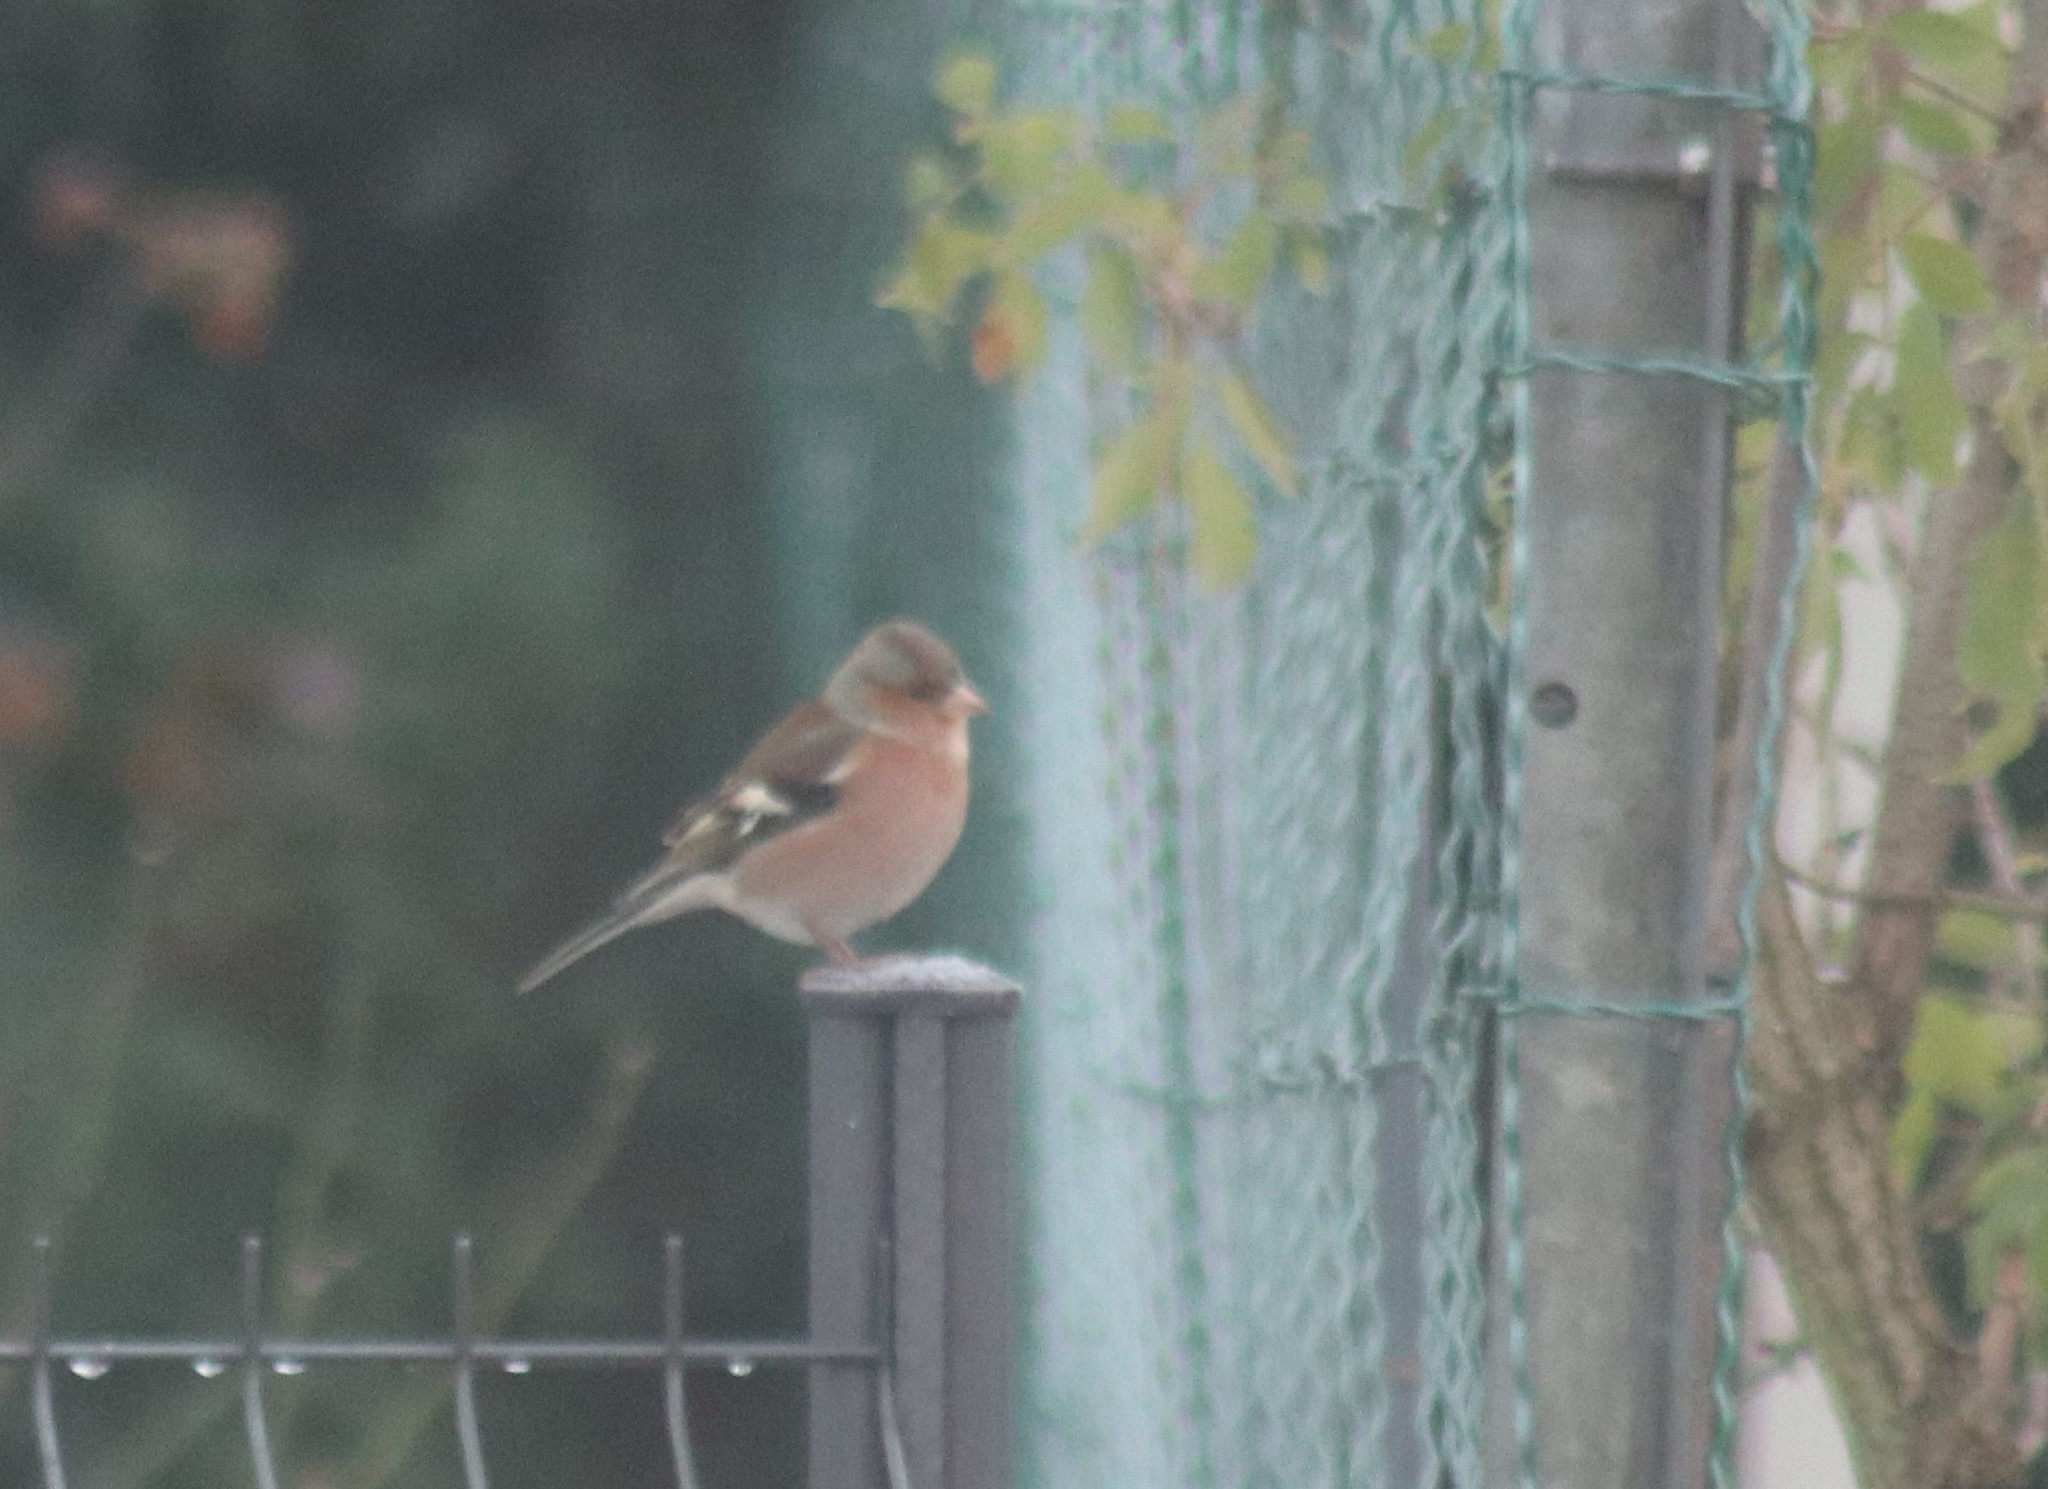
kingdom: Animalia
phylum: Chordata
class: Aves
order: Passeriformes
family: Fringillidae
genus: Fringilla
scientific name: Fringilla coelebs
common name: Common chaffinch
